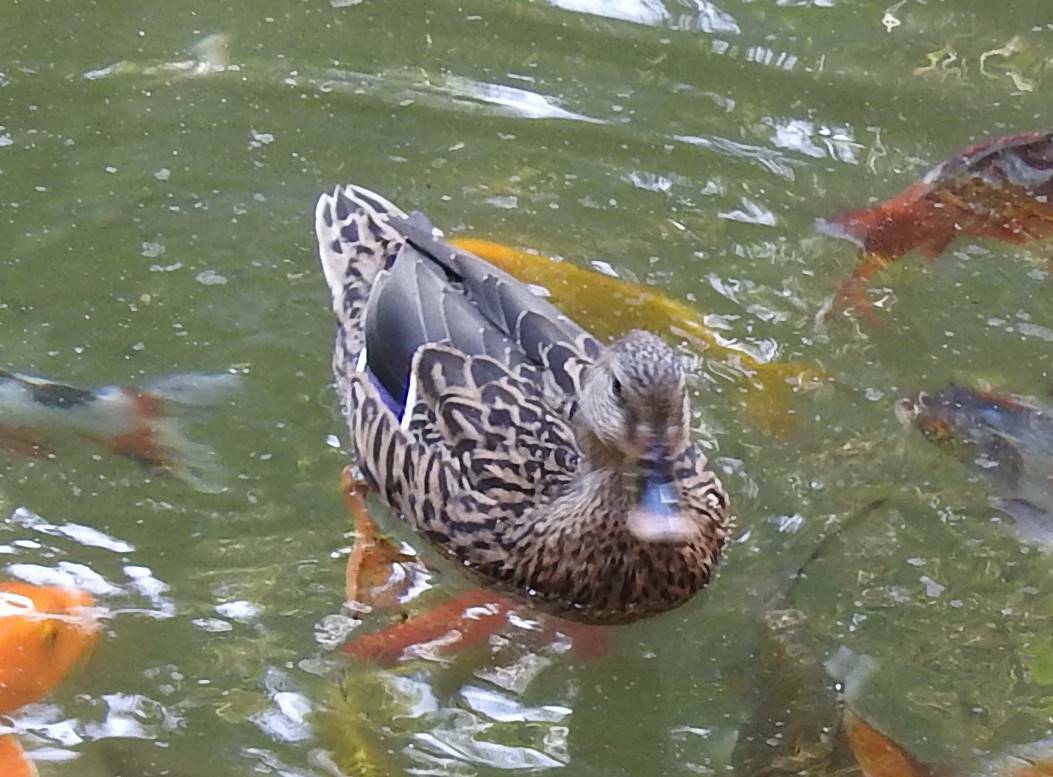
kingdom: Animalia
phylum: Chordata
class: Aves
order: Anseriformes
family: Anatidae
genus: Anas
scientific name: Anas platyrhynchos
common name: Mallard
